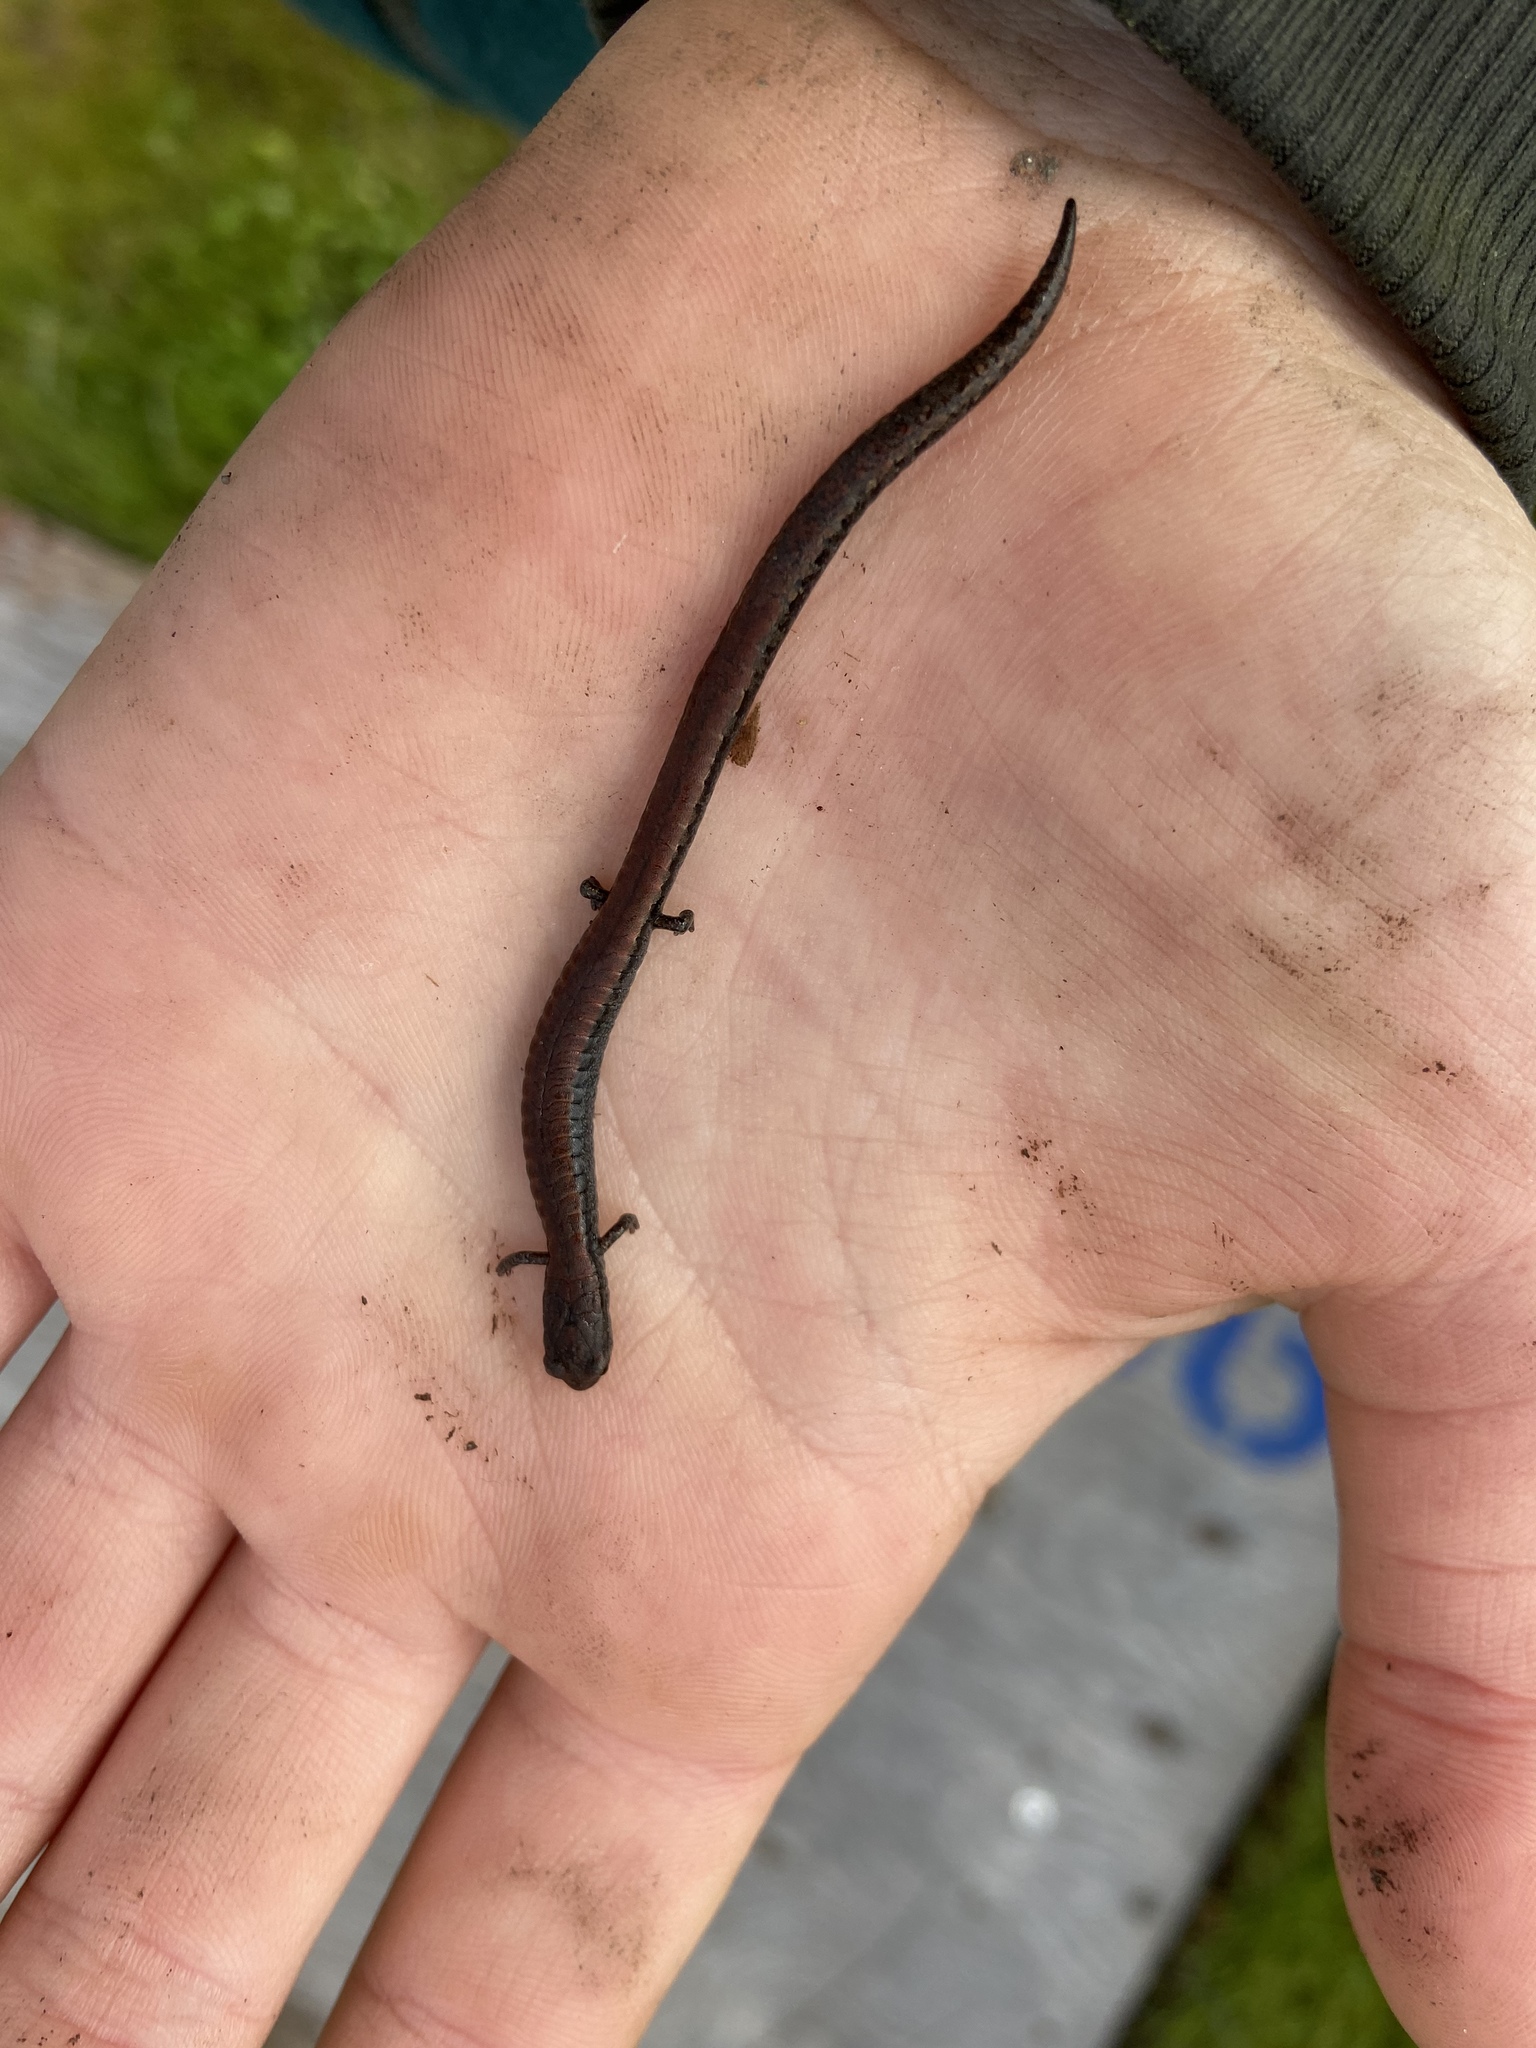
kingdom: Animalia
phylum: Chordata
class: Amphibia
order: Caudata
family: Plethodontidae
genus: Batrachoseps
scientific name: Batrachoseps attenuatus
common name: California slender salamander
